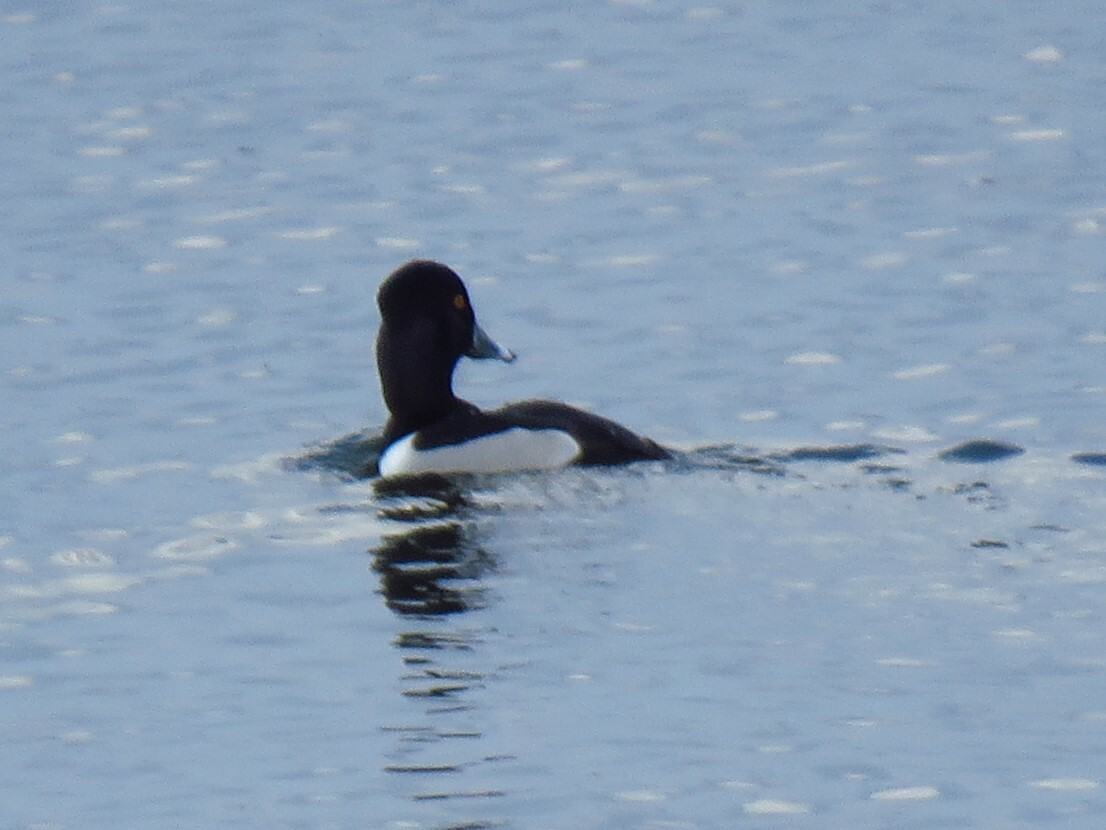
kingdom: Animalia
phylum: Chordata
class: Aves
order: Anseriformes
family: Anatidae
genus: Aythya
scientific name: Aythya collaris
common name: Ring-necked duck
